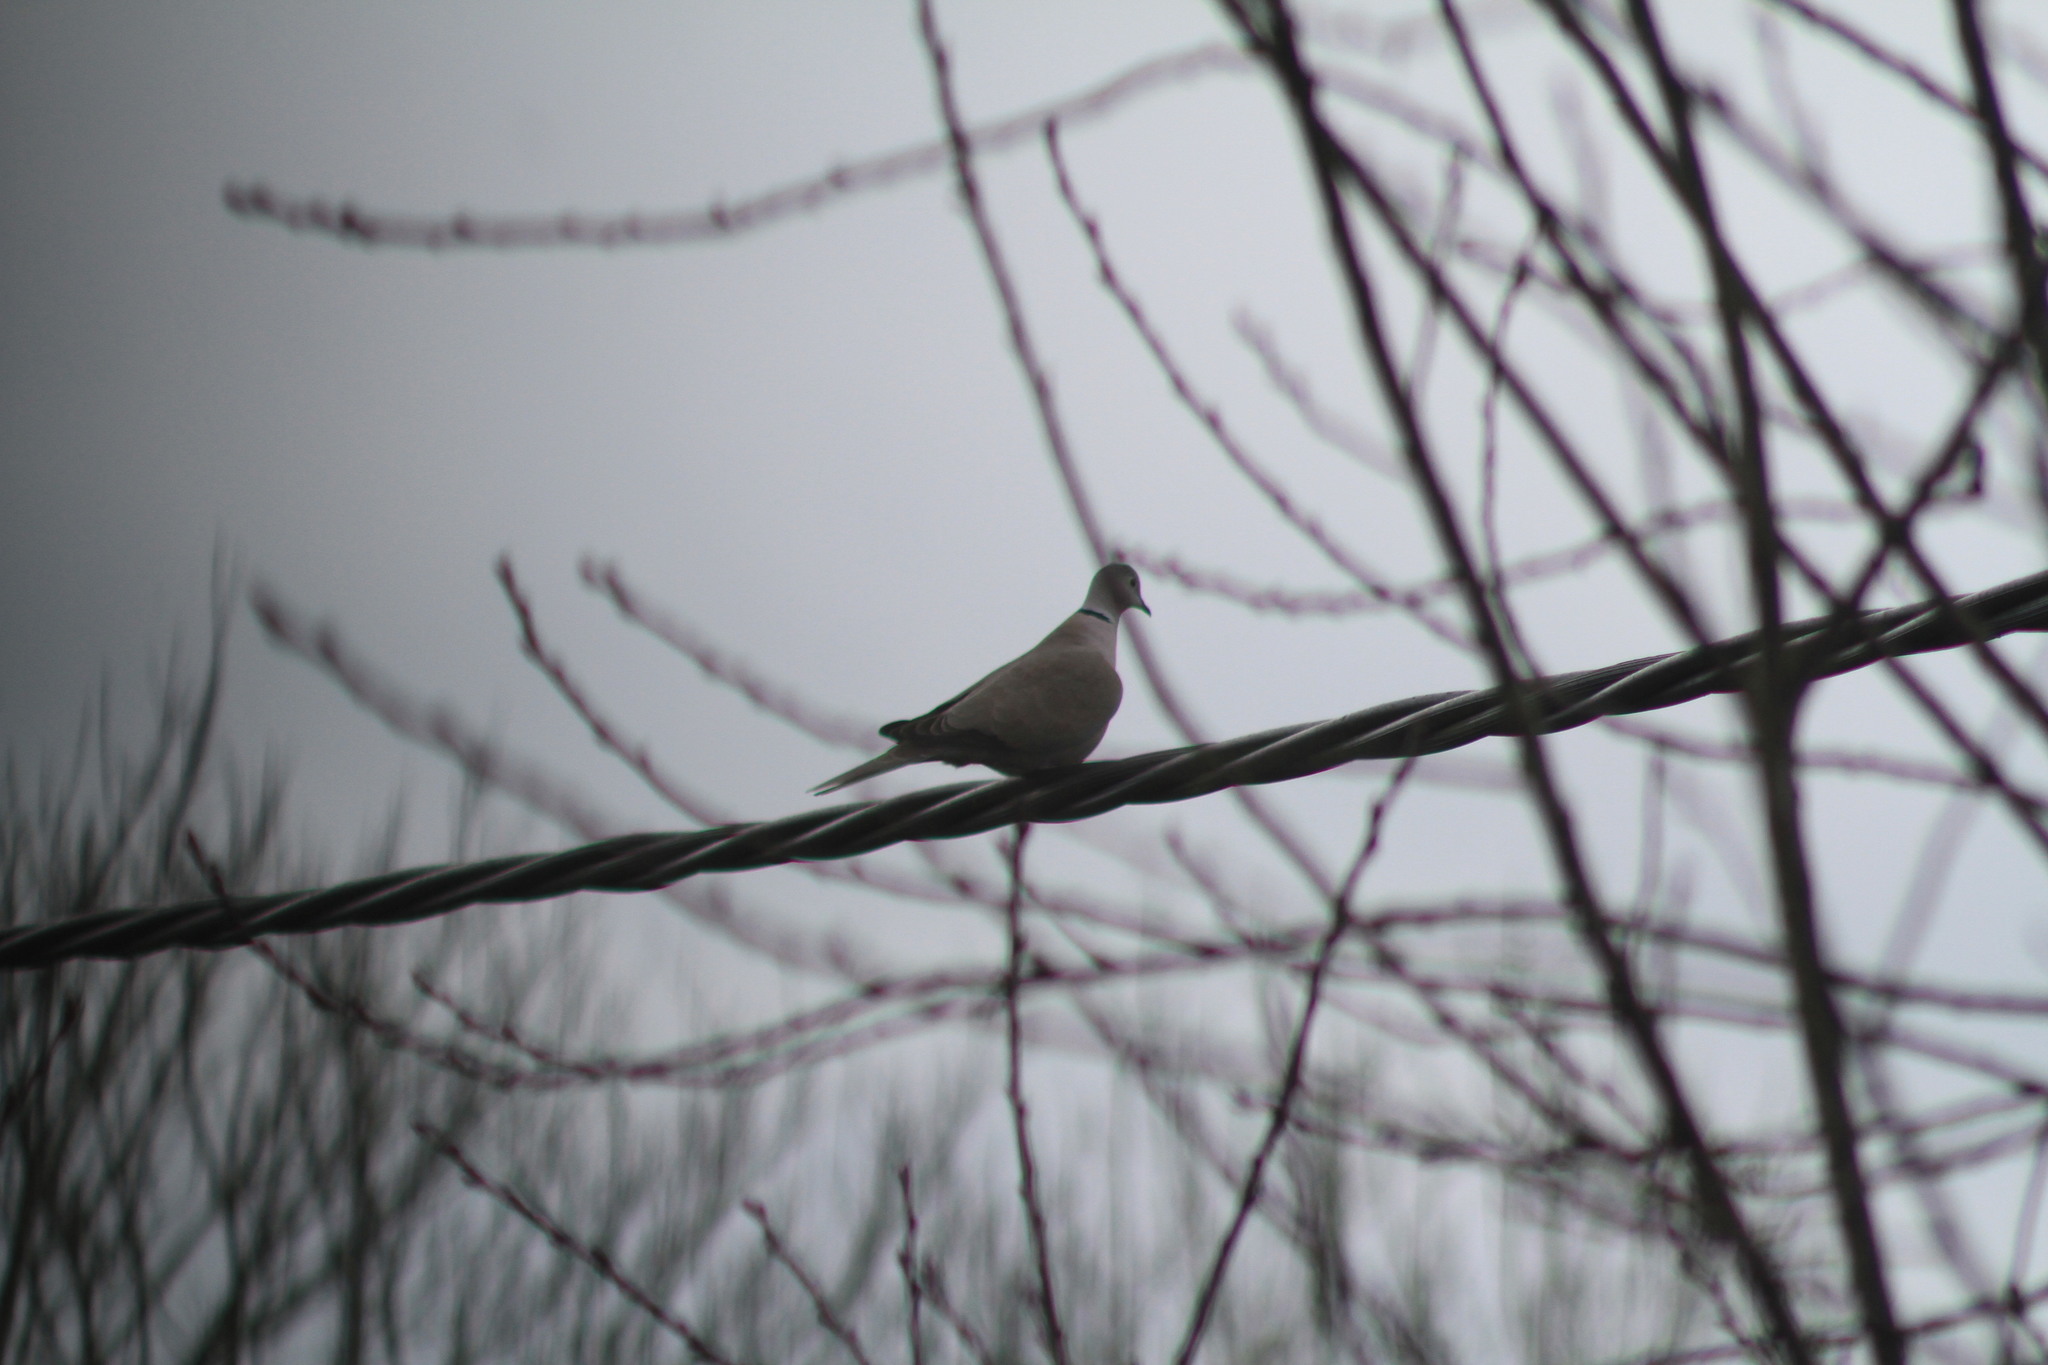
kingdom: Animalia
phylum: Chordata
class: Aves
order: Columbiformes
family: Columbidae
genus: Streptopelia
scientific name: Streptopelia decaocto
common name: Eurasian collared dove
